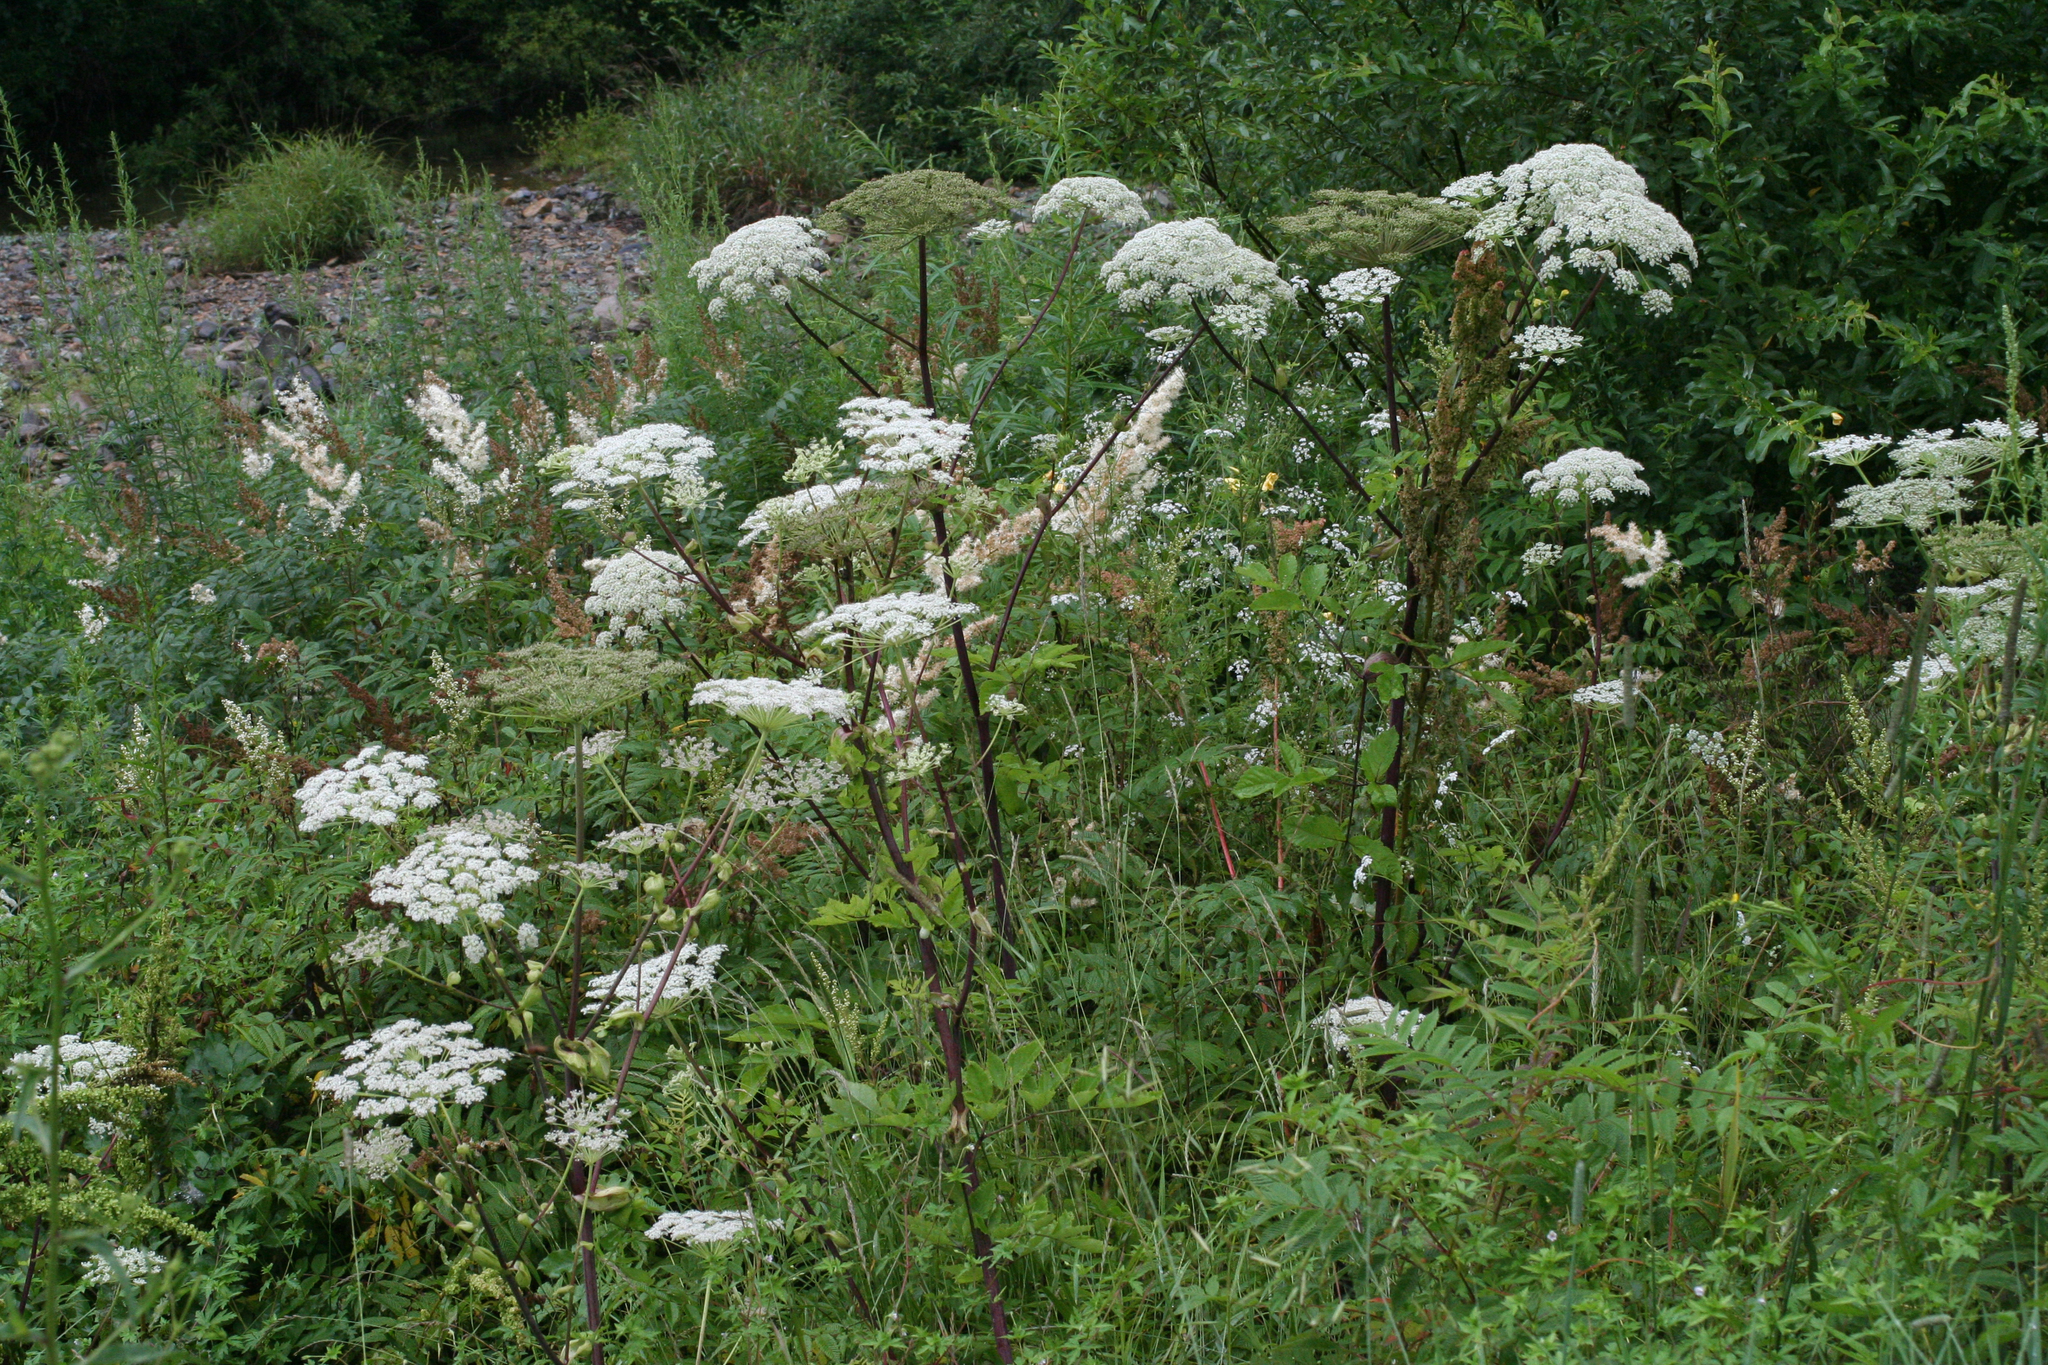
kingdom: Plantae
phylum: Tracheophyta
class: Magnoliopsida
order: Apiales
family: Apiaceae
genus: Angelica
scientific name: Angelica cincta
